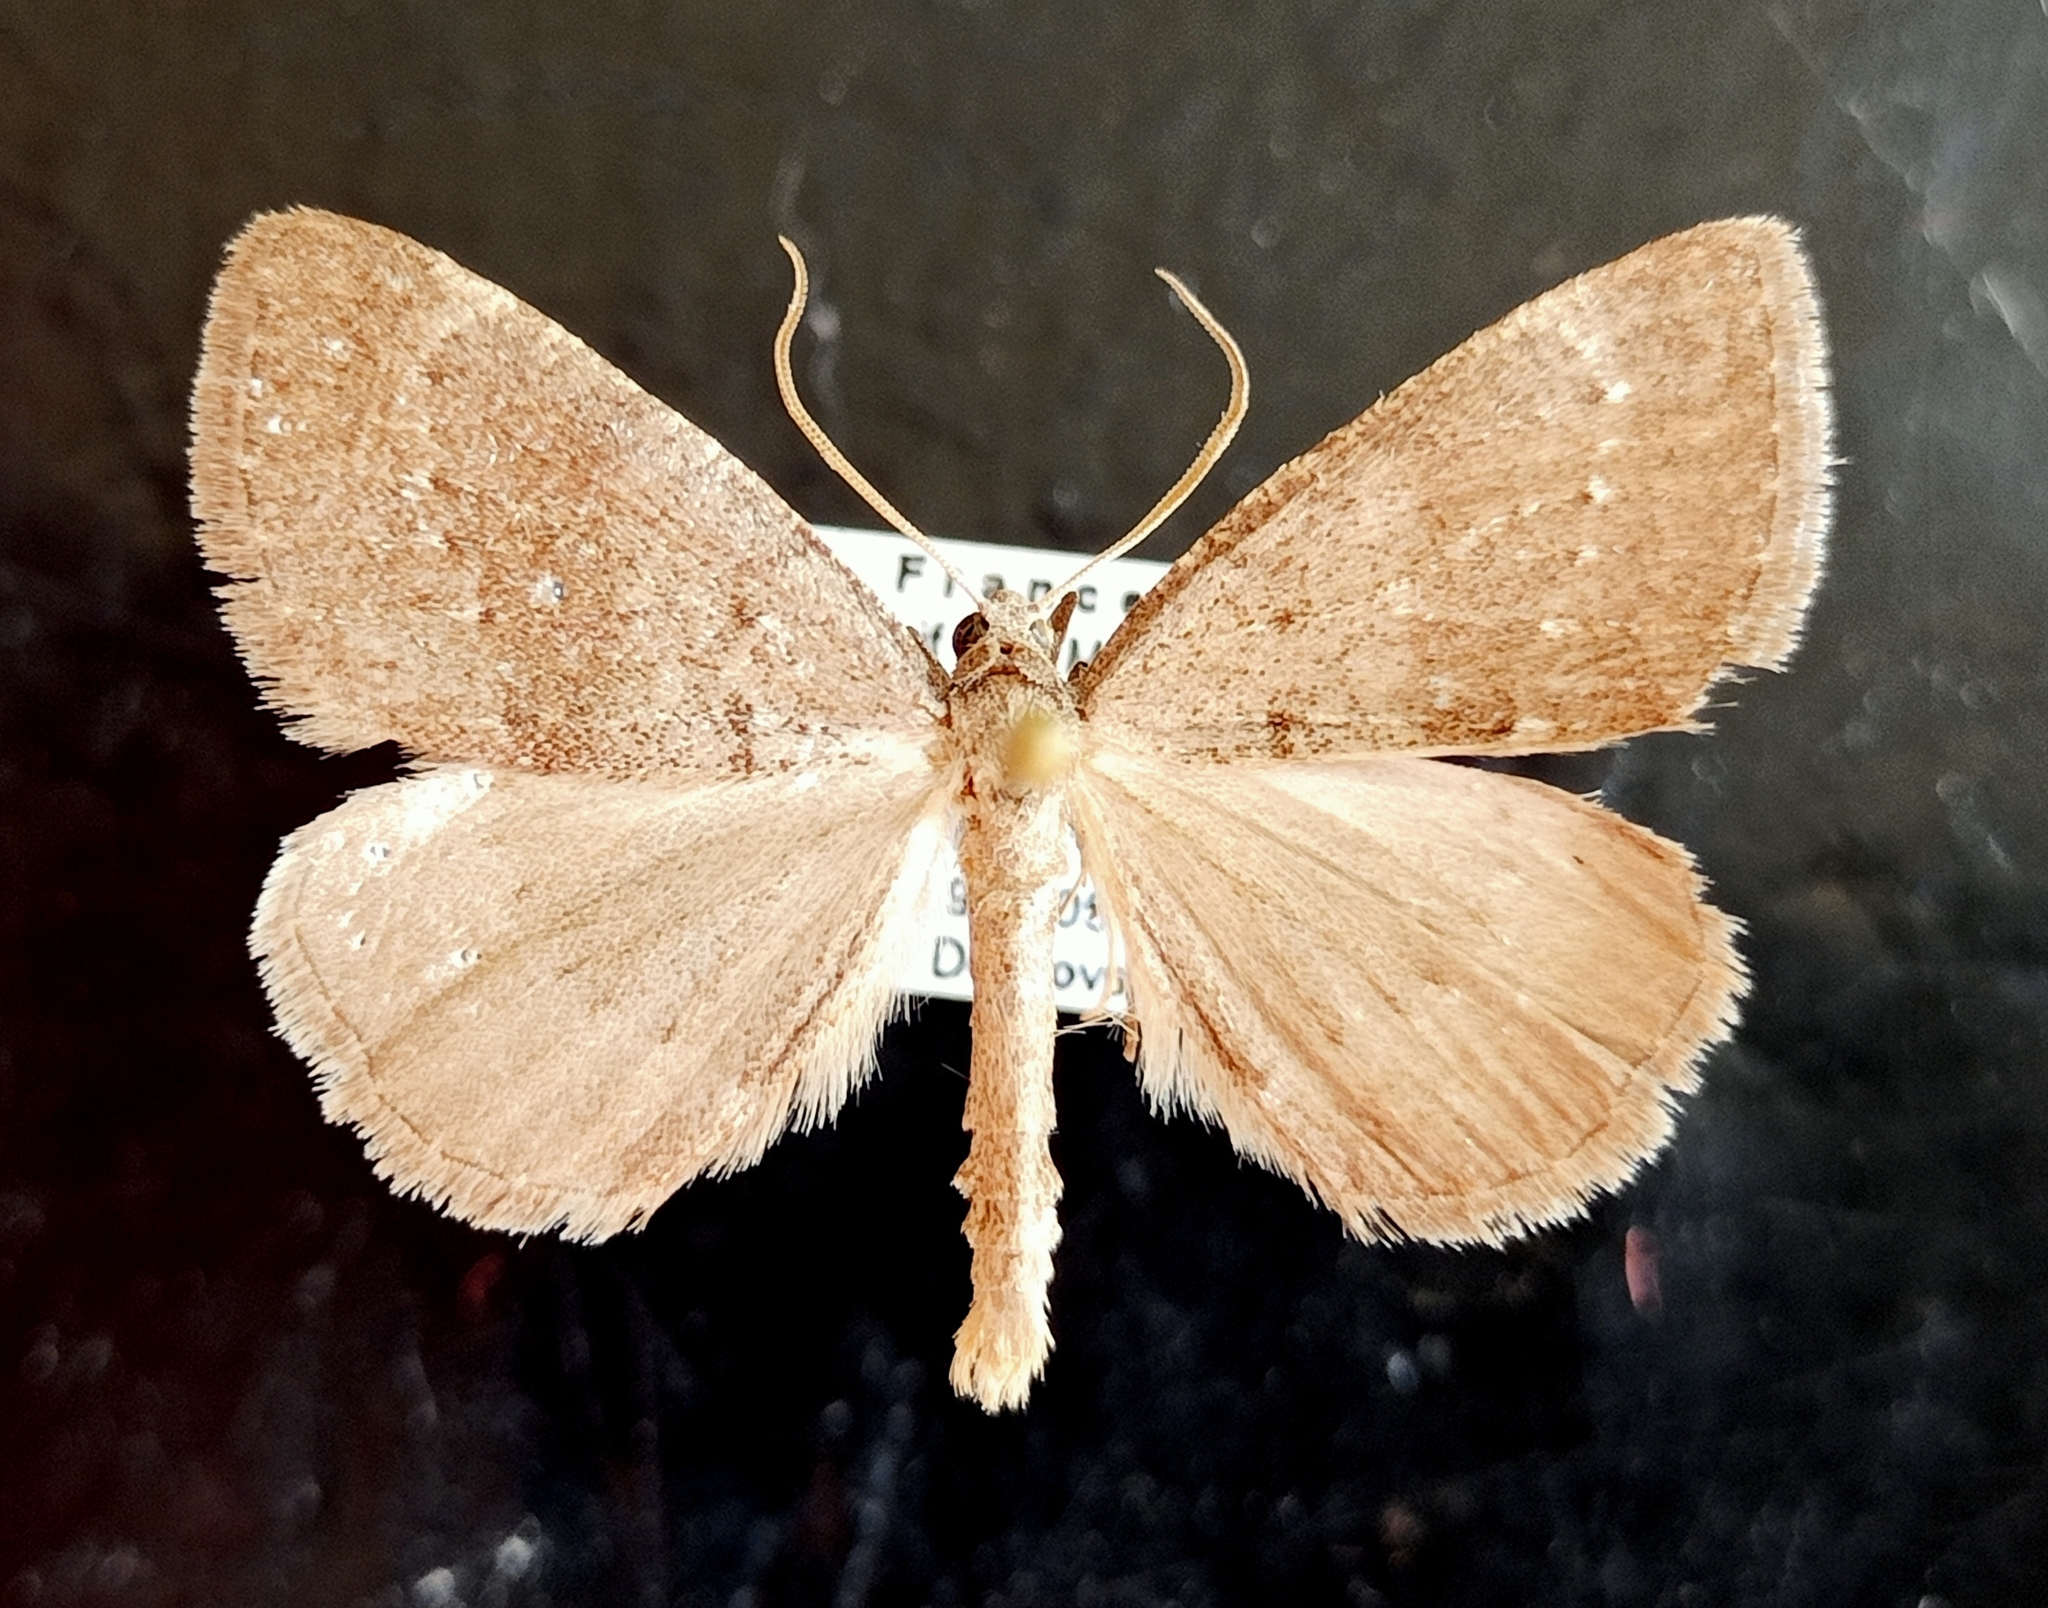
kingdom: Animalia
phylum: Arthropoda
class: Insecta
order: Lepidoptera
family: Geometridae
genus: Pachycnemia
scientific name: Pachycnemia tibiaria
